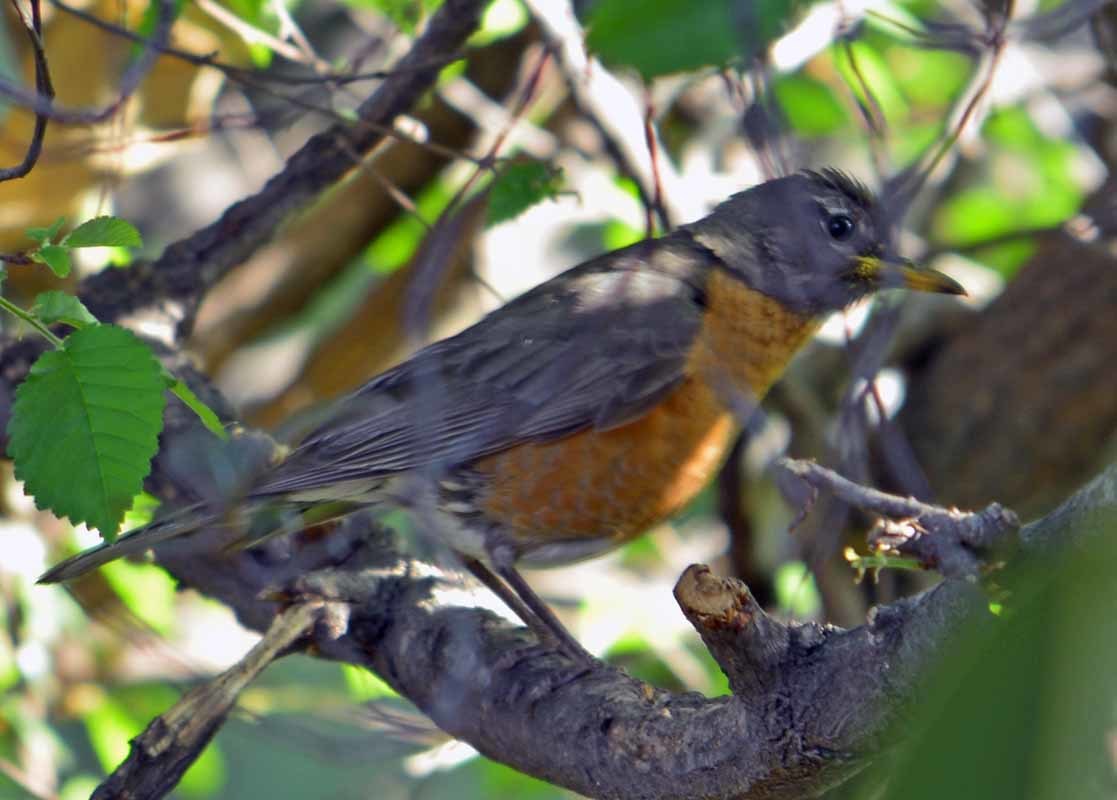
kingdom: Animalia
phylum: Chordata
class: Aves
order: Passeriformes
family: Turdidae
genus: Turdus
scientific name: Turdus migratorius
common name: American robin
